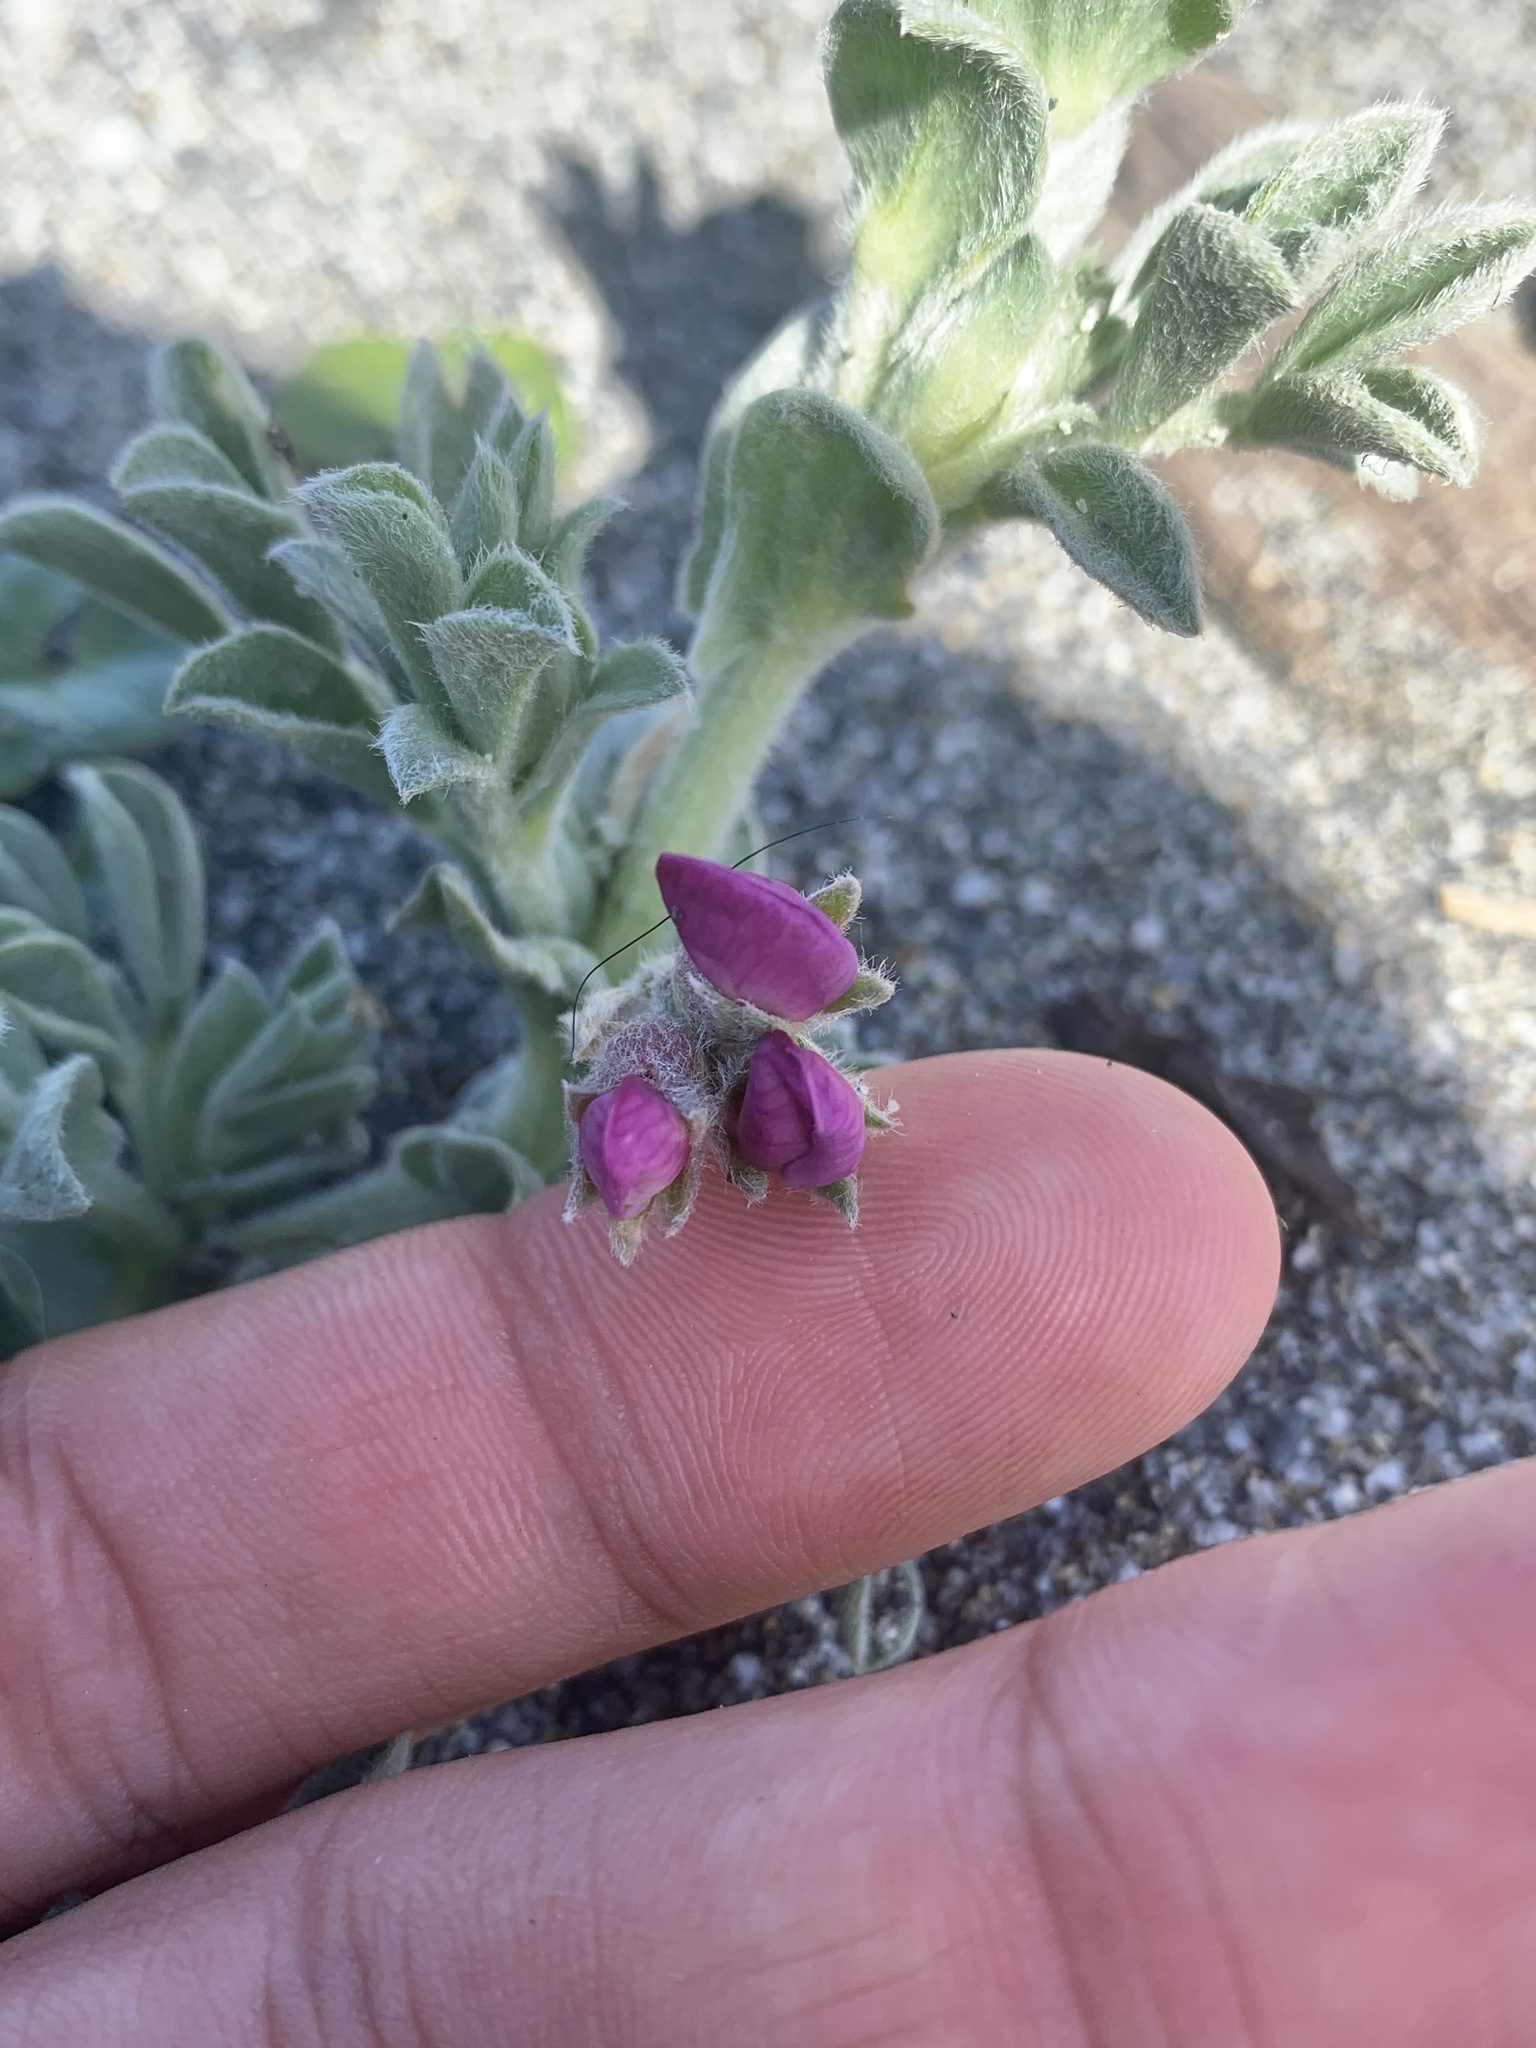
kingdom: Plantae
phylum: Tracheophyta
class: Magnoliopsida
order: Fabales
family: Fabaceae
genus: Lathyrus
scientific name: Lathyrus littoralis
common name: Dune sweet pea
